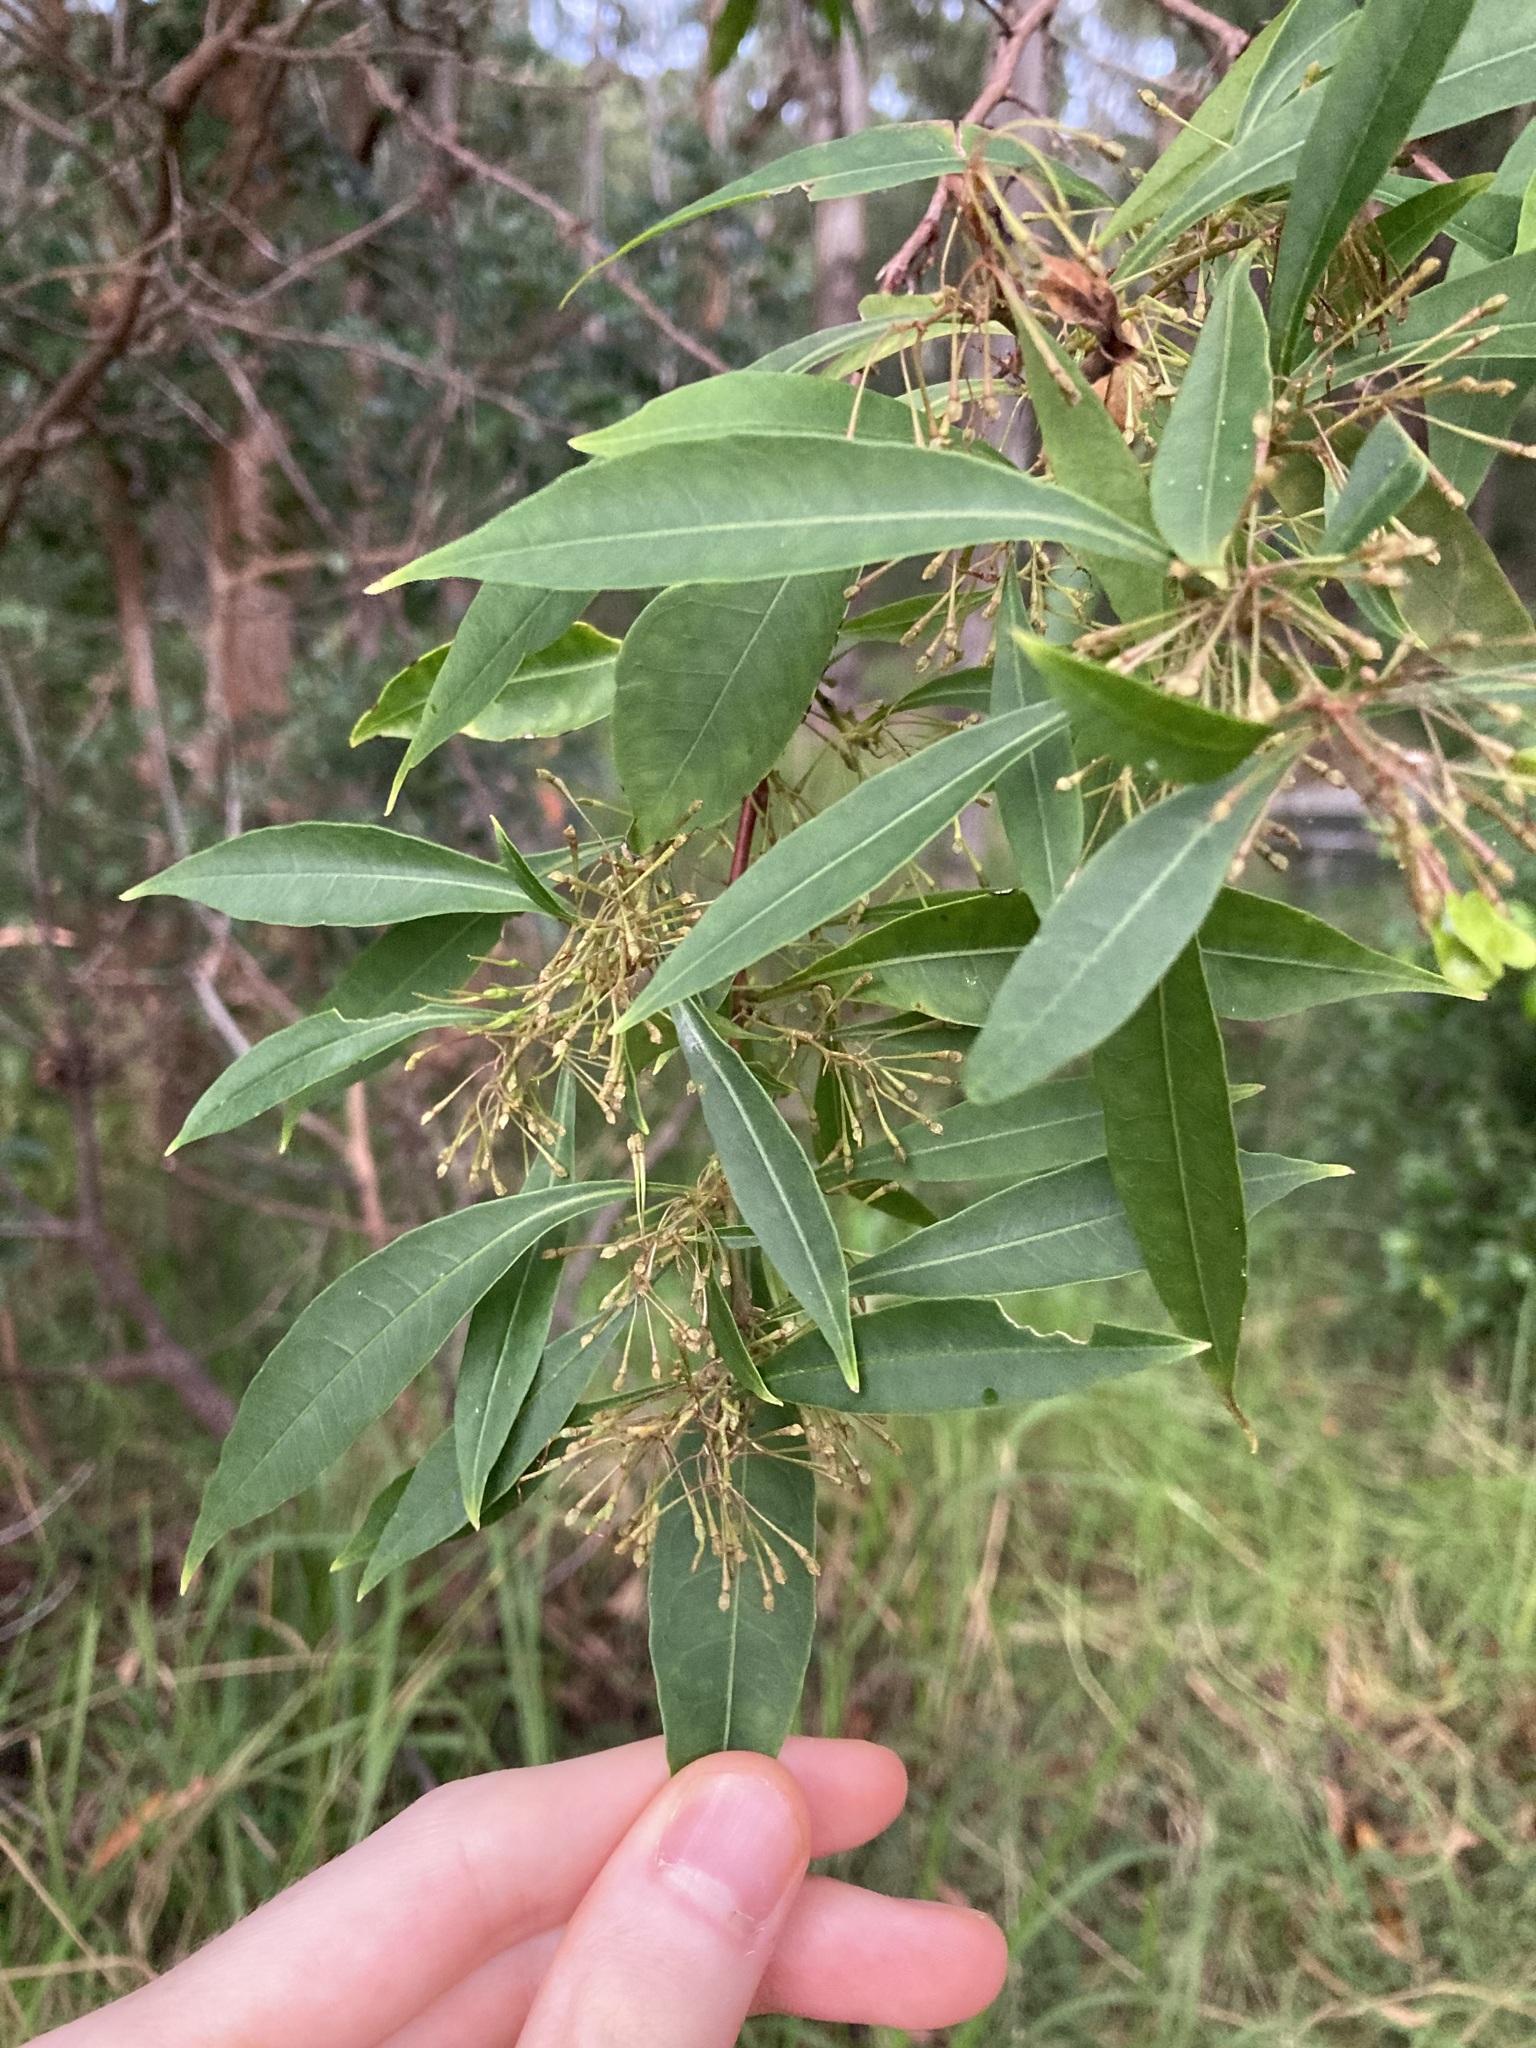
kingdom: Plantae
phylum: Tracheophyta
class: Magnoliopsida
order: Sapindales
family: Sapindaceae
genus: Dodonaea
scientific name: Dodonaea triquetra
